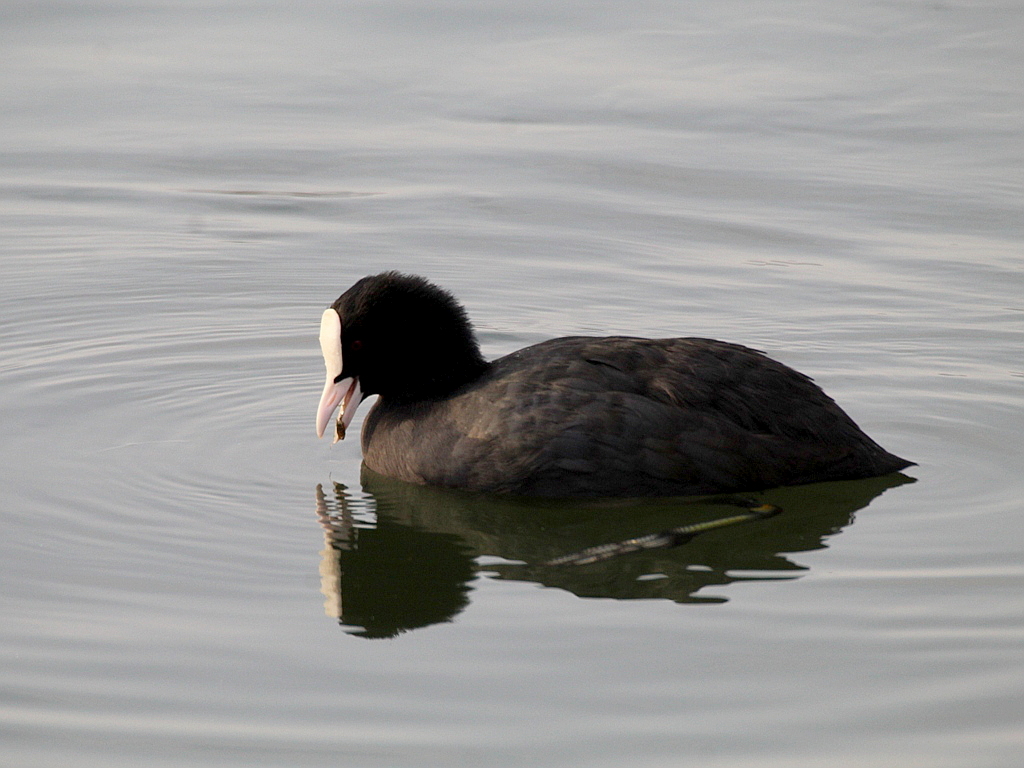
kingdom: Animalia
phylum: Chordata
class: Aves
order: Gruiformes
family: Rallidae
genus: Fulica
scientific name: Fulica atra
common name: Eurasian coot
